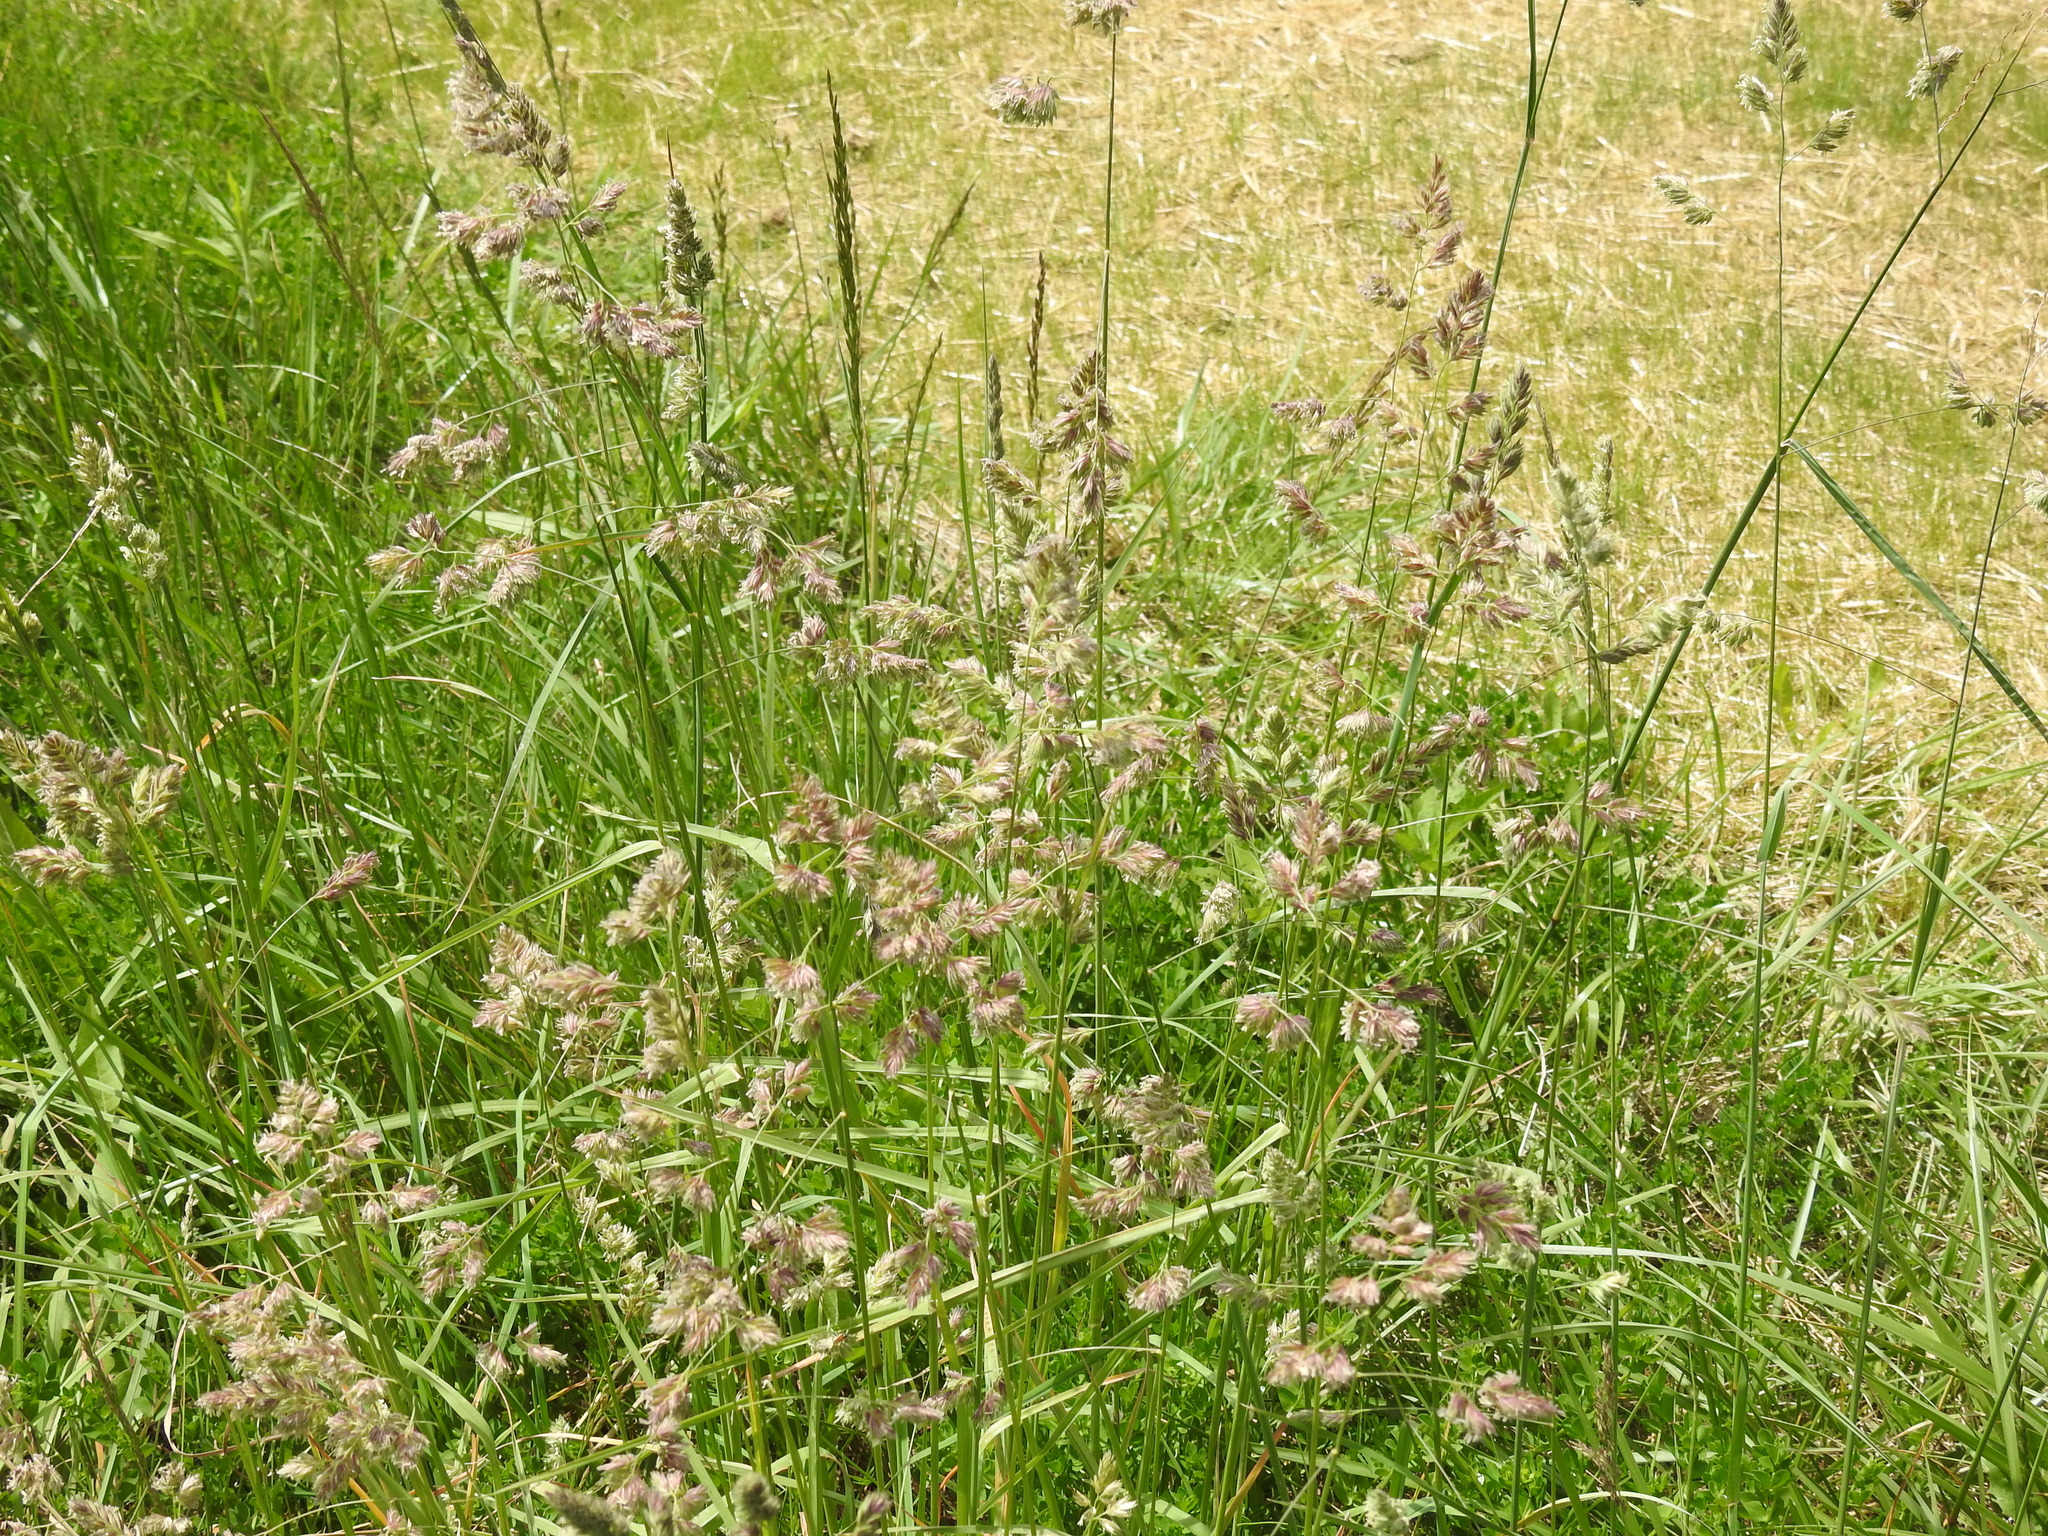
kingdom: Plantae
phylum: Tracheophyta
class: Liliopsida
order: Poales
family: Poaceae
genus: Dactylis
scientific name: Dactylis glomerata
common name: Orchardgrass
